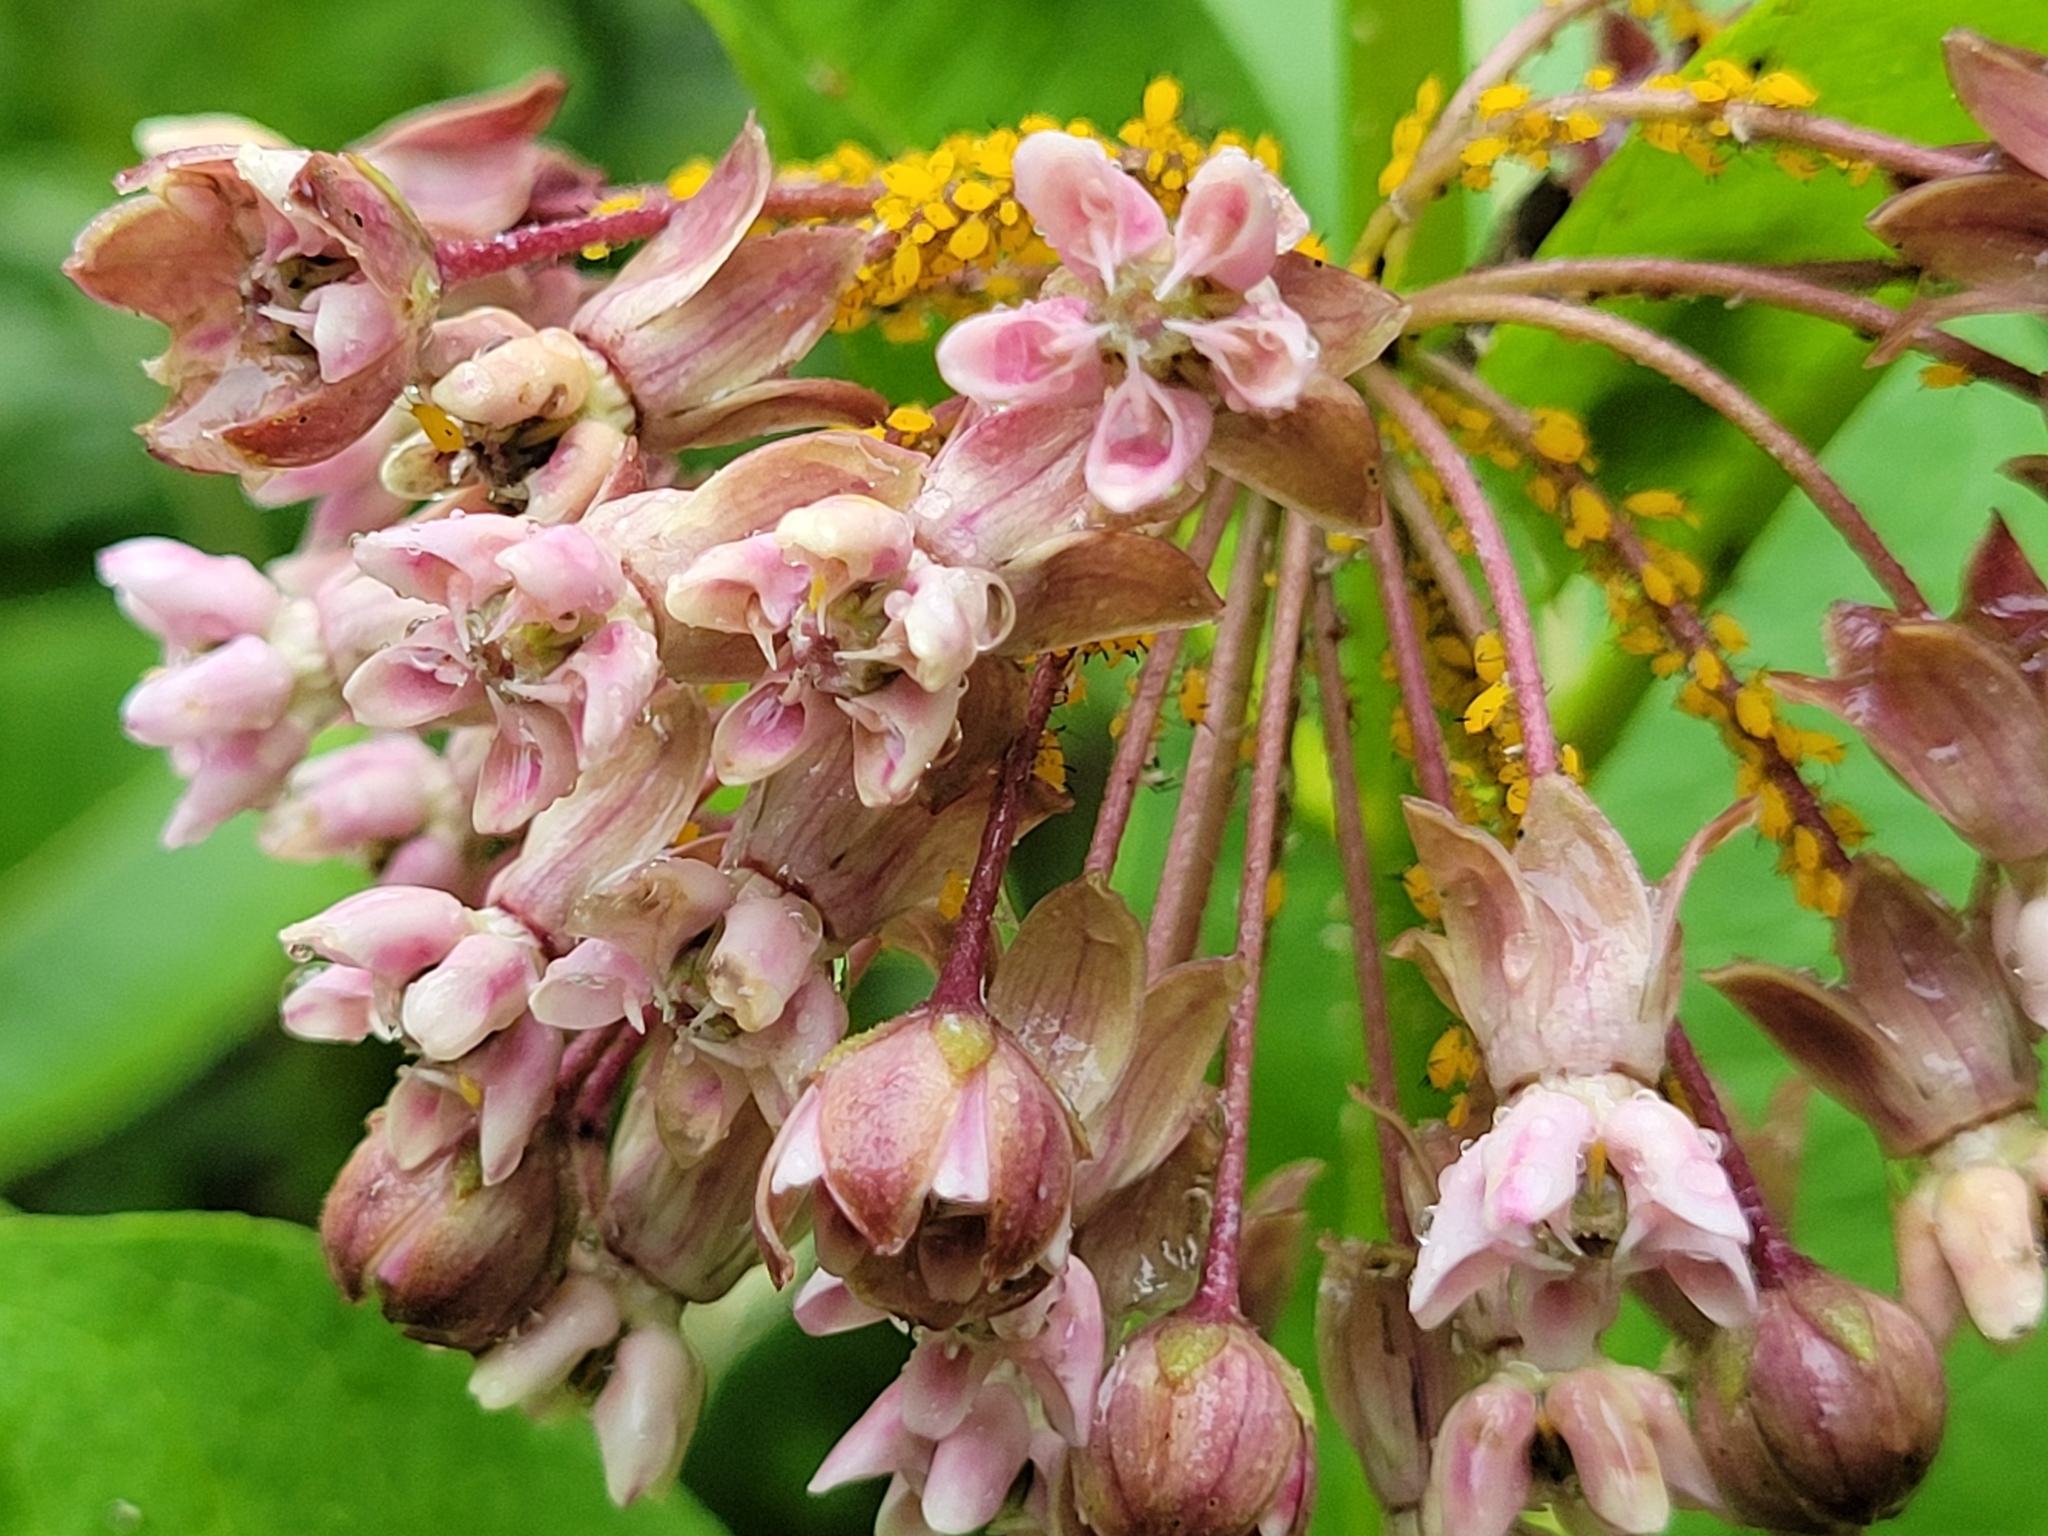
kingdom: Plantae
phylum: Tracheophyta
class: Magnoliopsida
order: Gentianales
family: Apocynaceae
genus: Asclepias
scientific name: Asclepias syriaca
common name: Common milkweed
